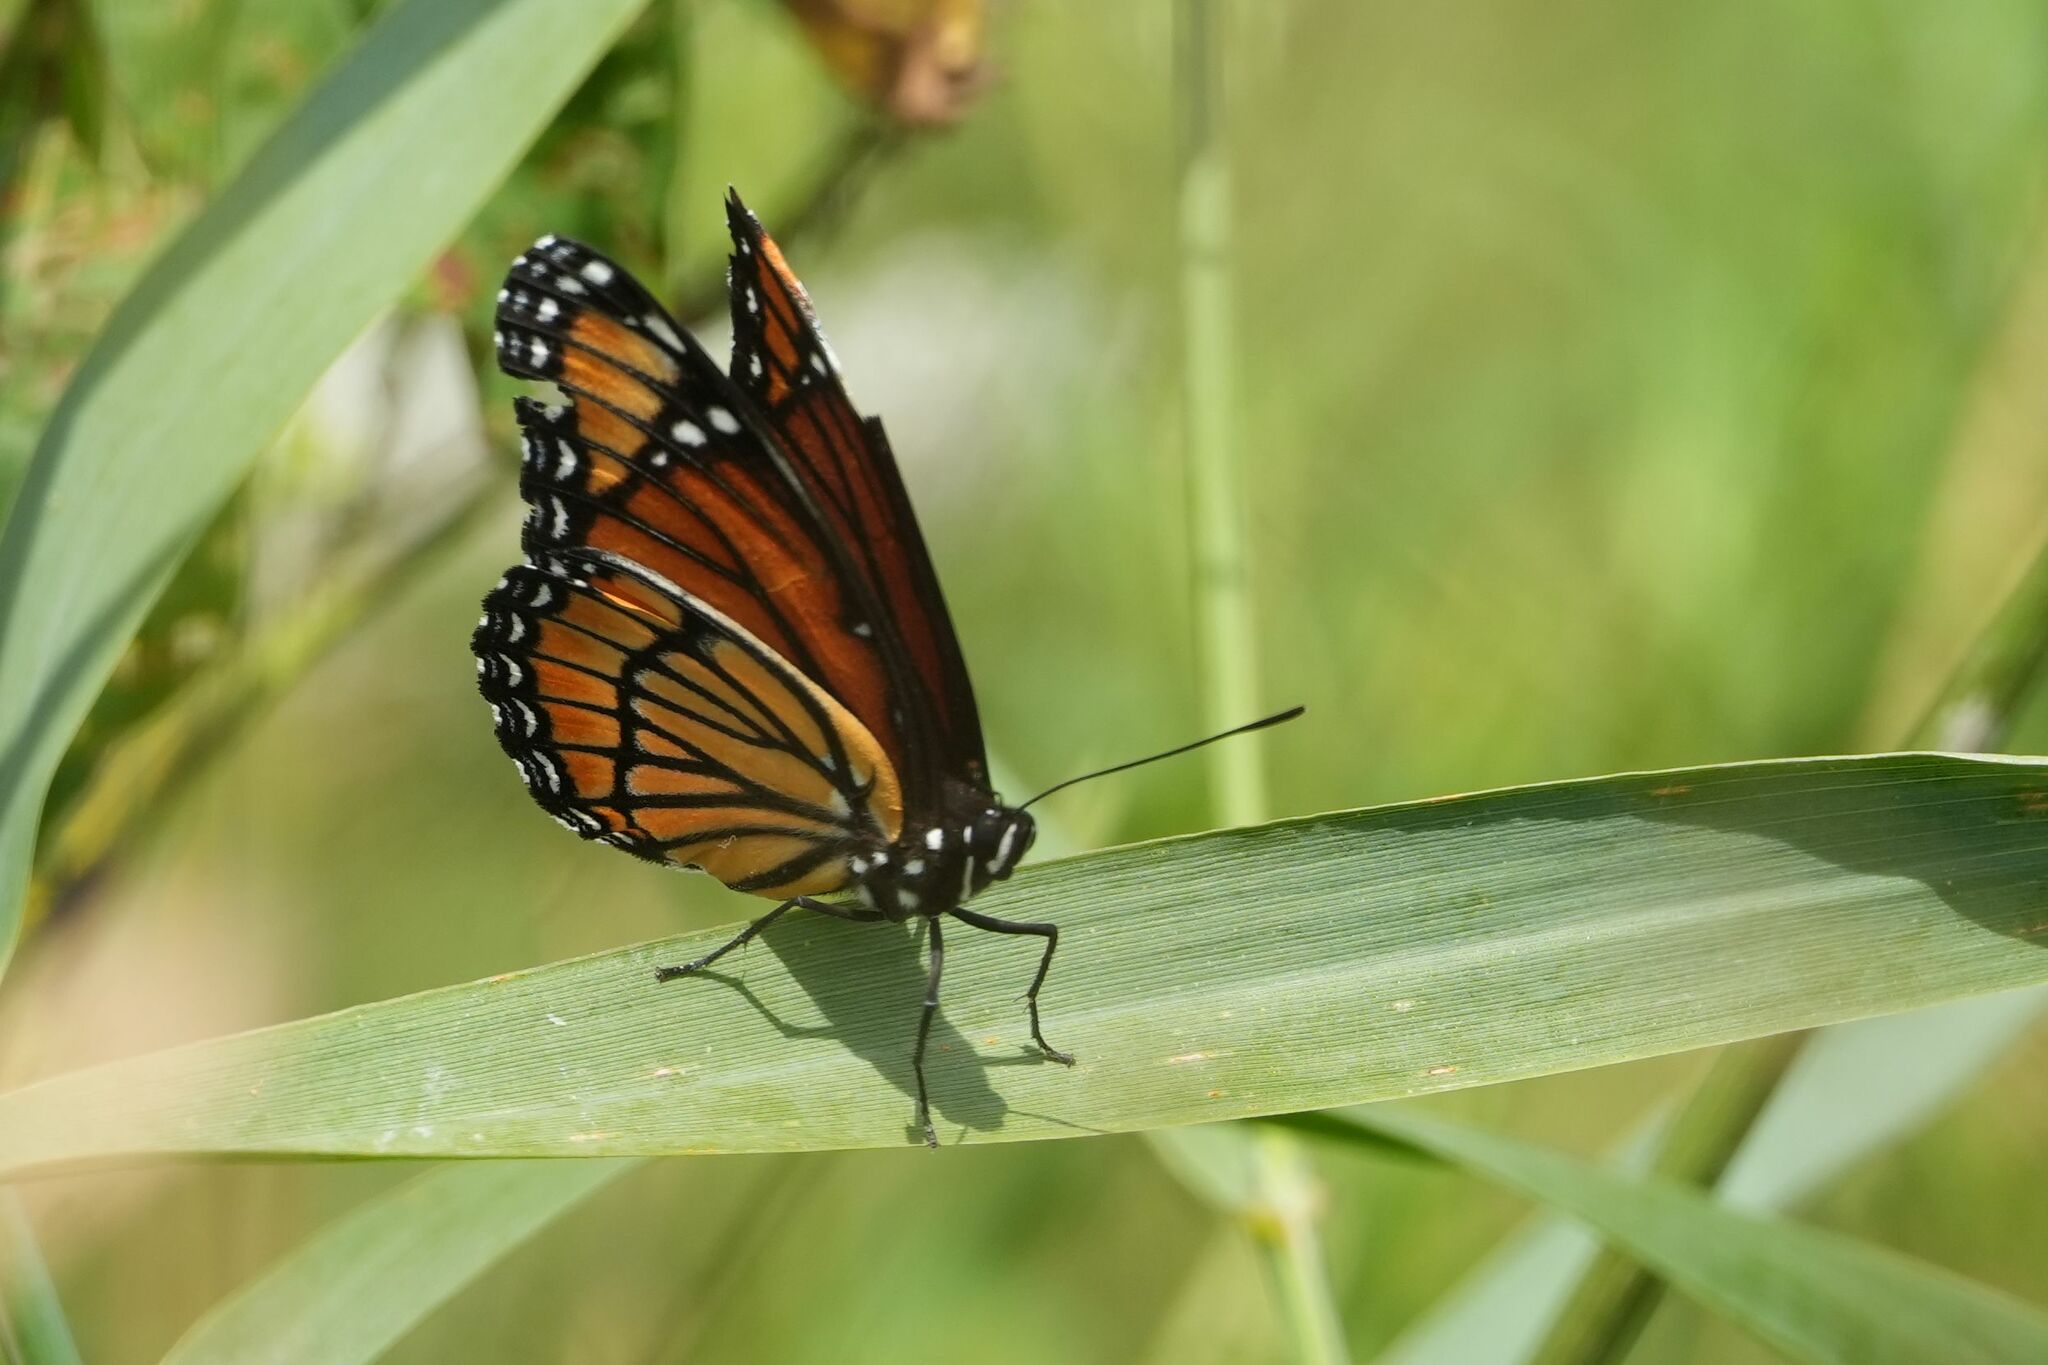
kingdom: Animalia
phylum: Arthropoda
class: Insecta
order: Lepidoptera
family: Nymphalidae
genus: Limenitis
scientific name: Limenitis archippus
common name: Viceroy
